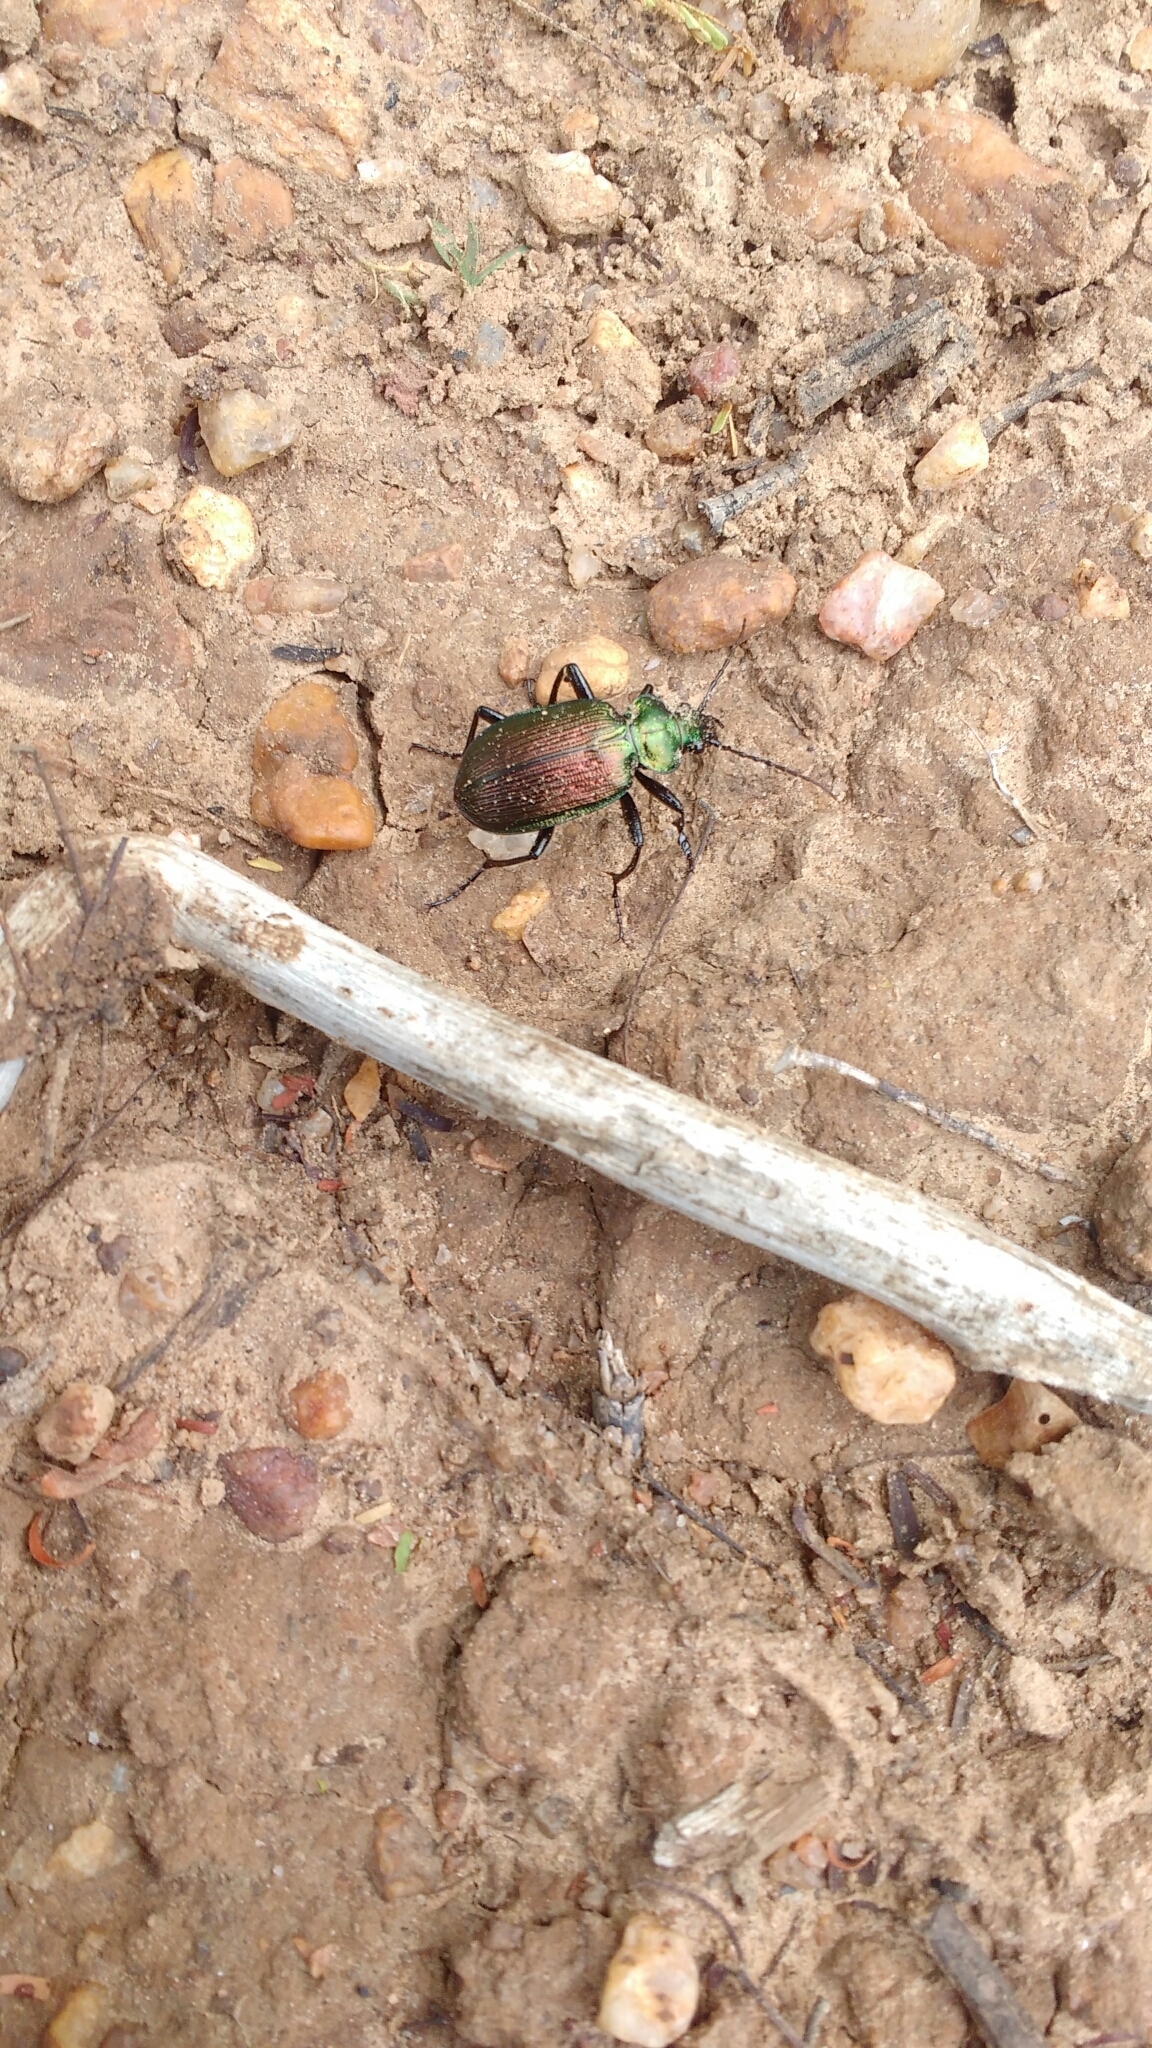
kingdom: Animalia
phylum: Arthropoda
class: Insecta
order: Coleoptera
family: Carabidae
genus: Calosoma
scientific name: Calosoma alternans
